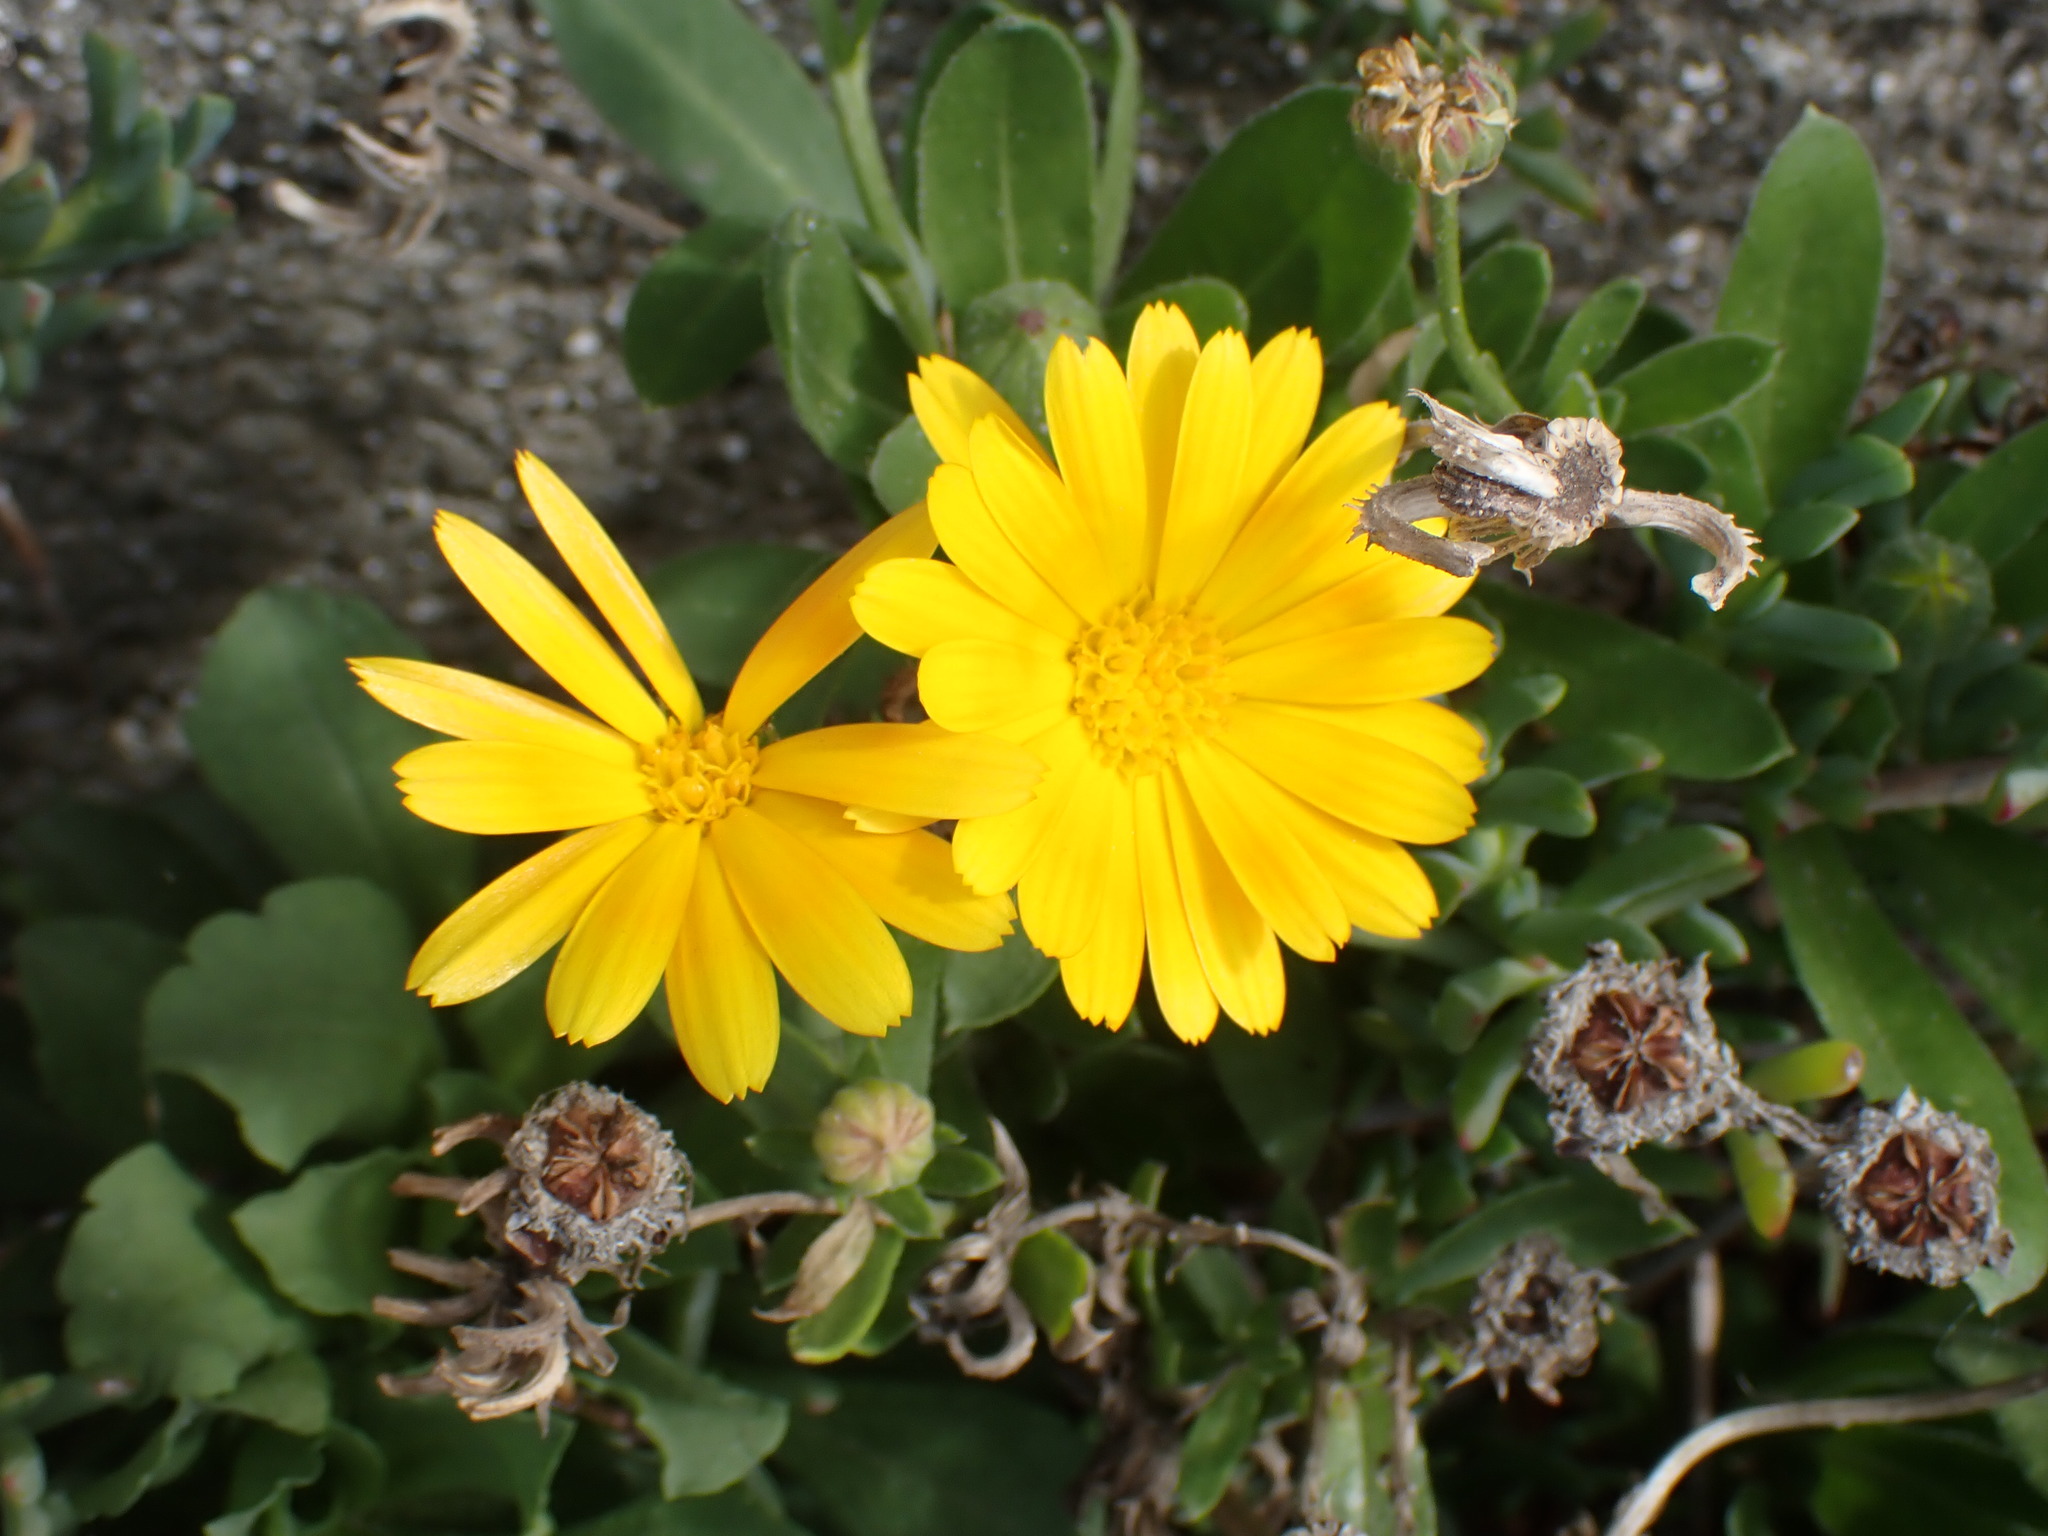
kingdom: Plantae
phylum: Tracheophyta
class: Magnoliopsida
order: Asterales
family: Asteraceae
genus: Calendula
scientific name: Calendula officinalis
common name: Pot marigold
